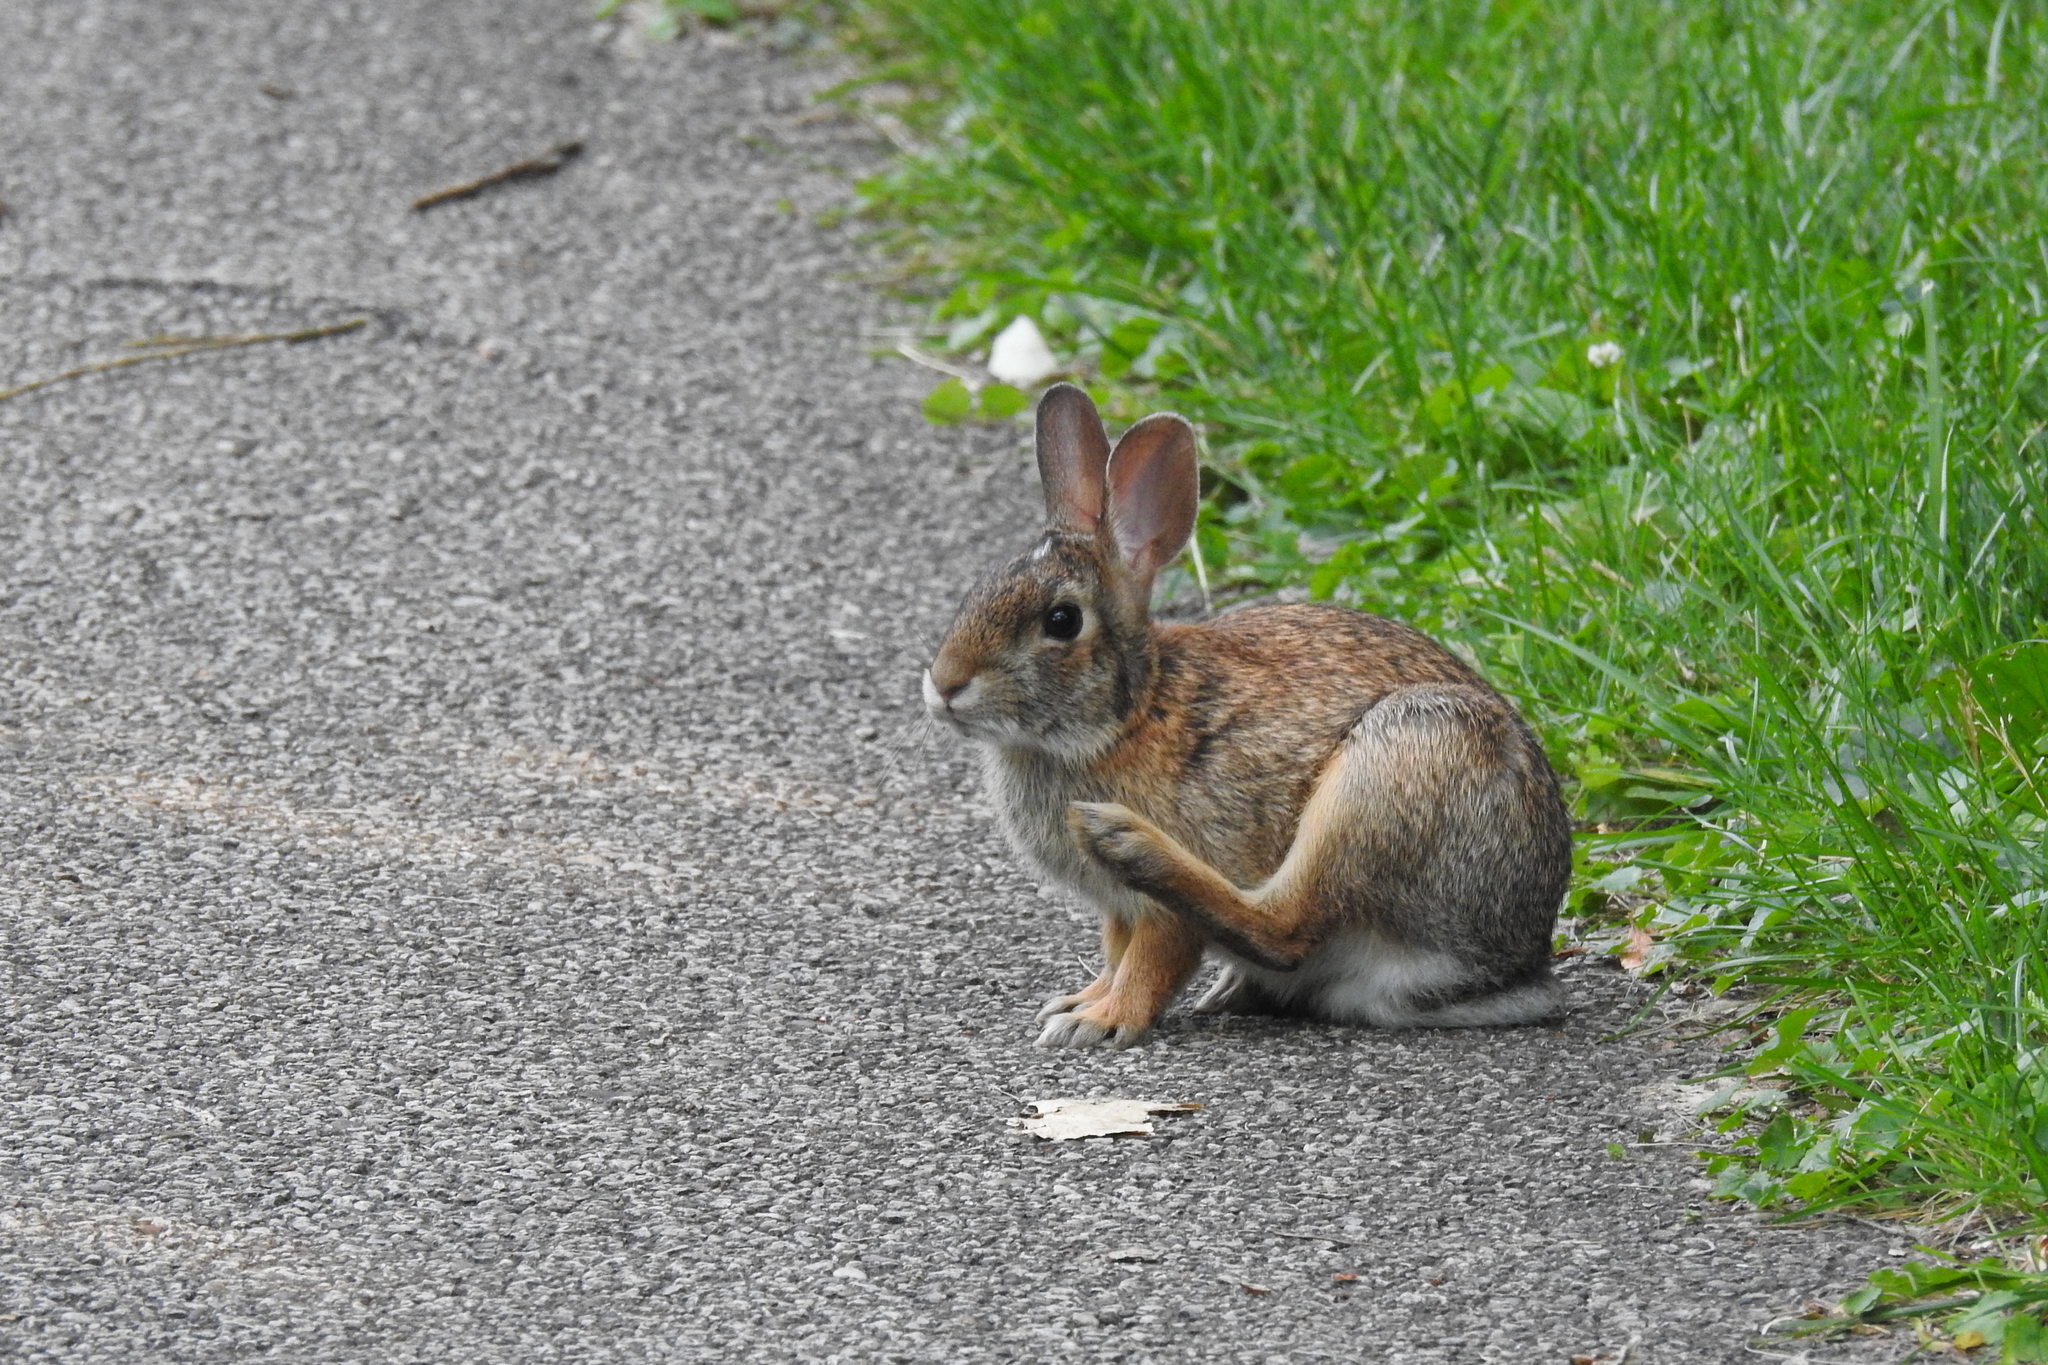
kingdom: Animalia
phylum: Chordata
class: Mammalia
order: Lagomorpha
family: Leporidae
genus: Sylvilagus
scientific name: Sylvilagus floridanus
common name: Eastern cottontail
